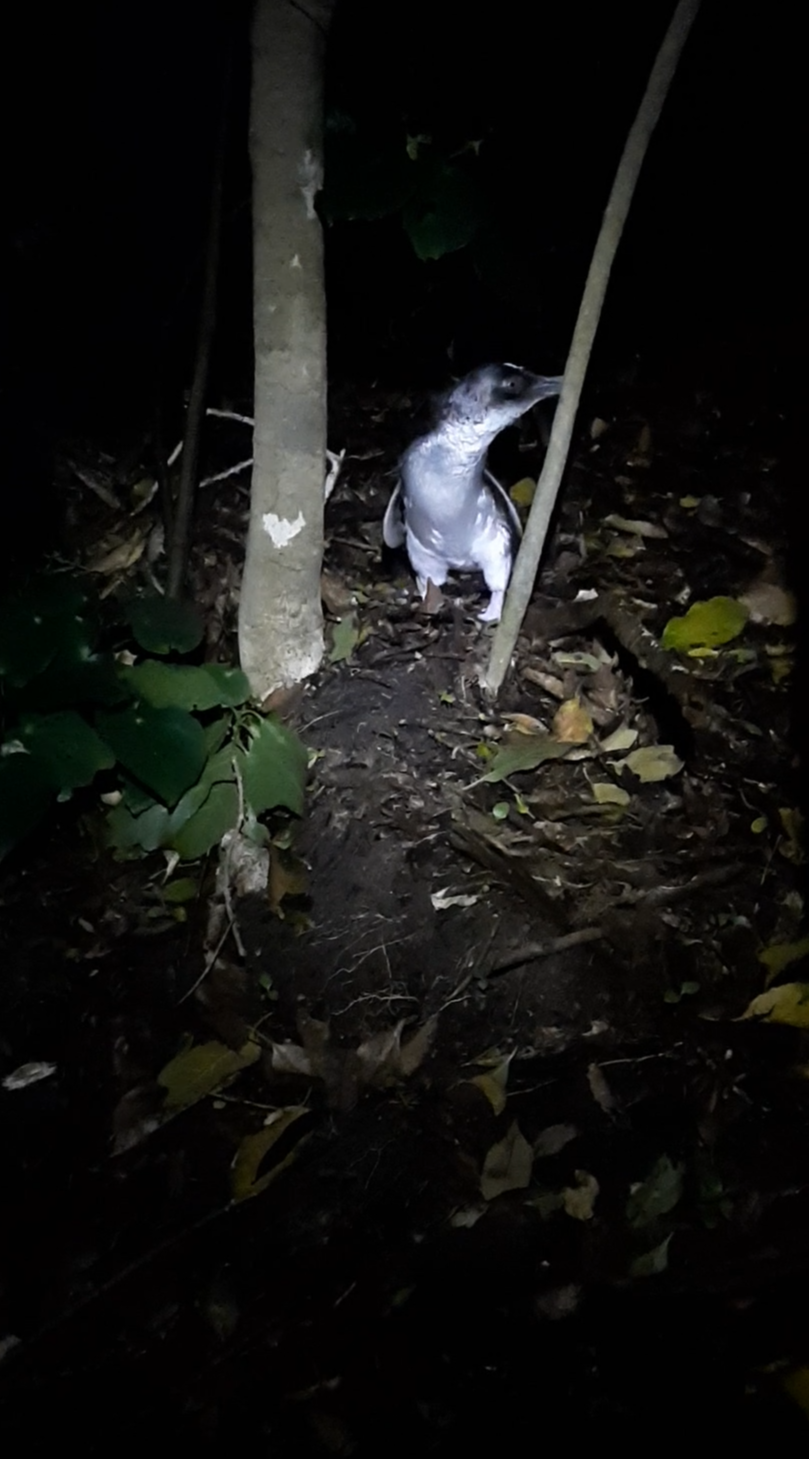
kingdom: Animalia
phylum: Chordata
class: Aves
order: Sphenisciformes
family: Spheniscidae
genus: Eudyptula
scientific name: Eudyptula minor
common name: Little penguin
